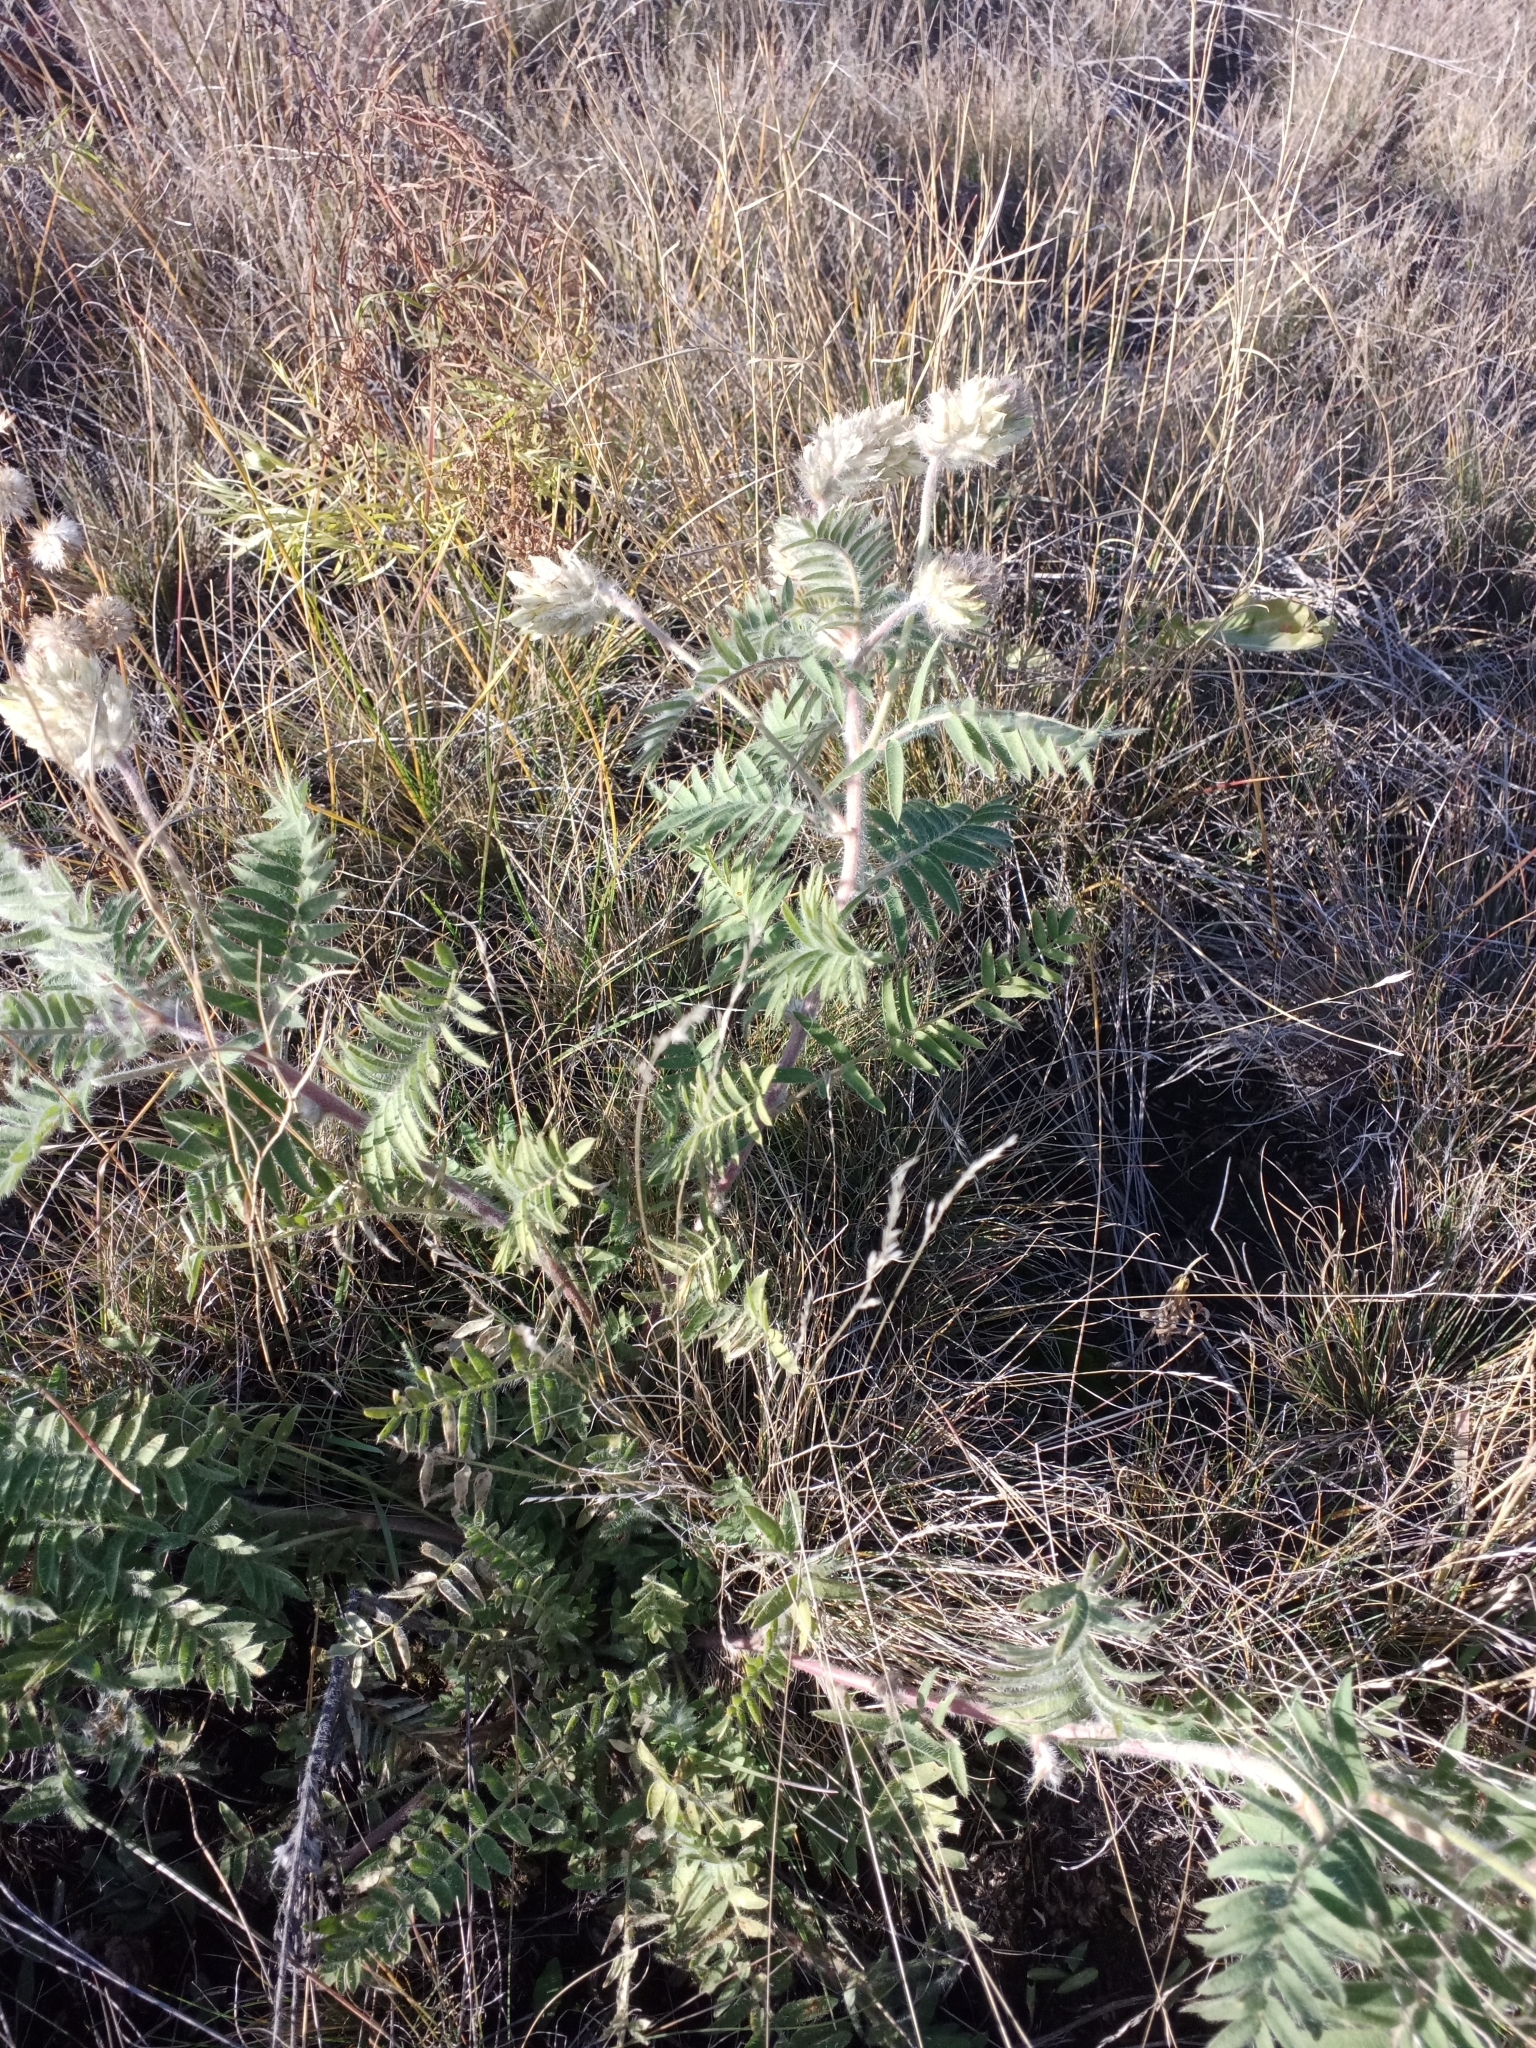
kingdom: Plantae
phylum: Tracheophyta
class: Magnoliopsida
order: Fabales
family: Fabaceae
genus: Oxytropis
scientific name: Oxytropis pilosa
